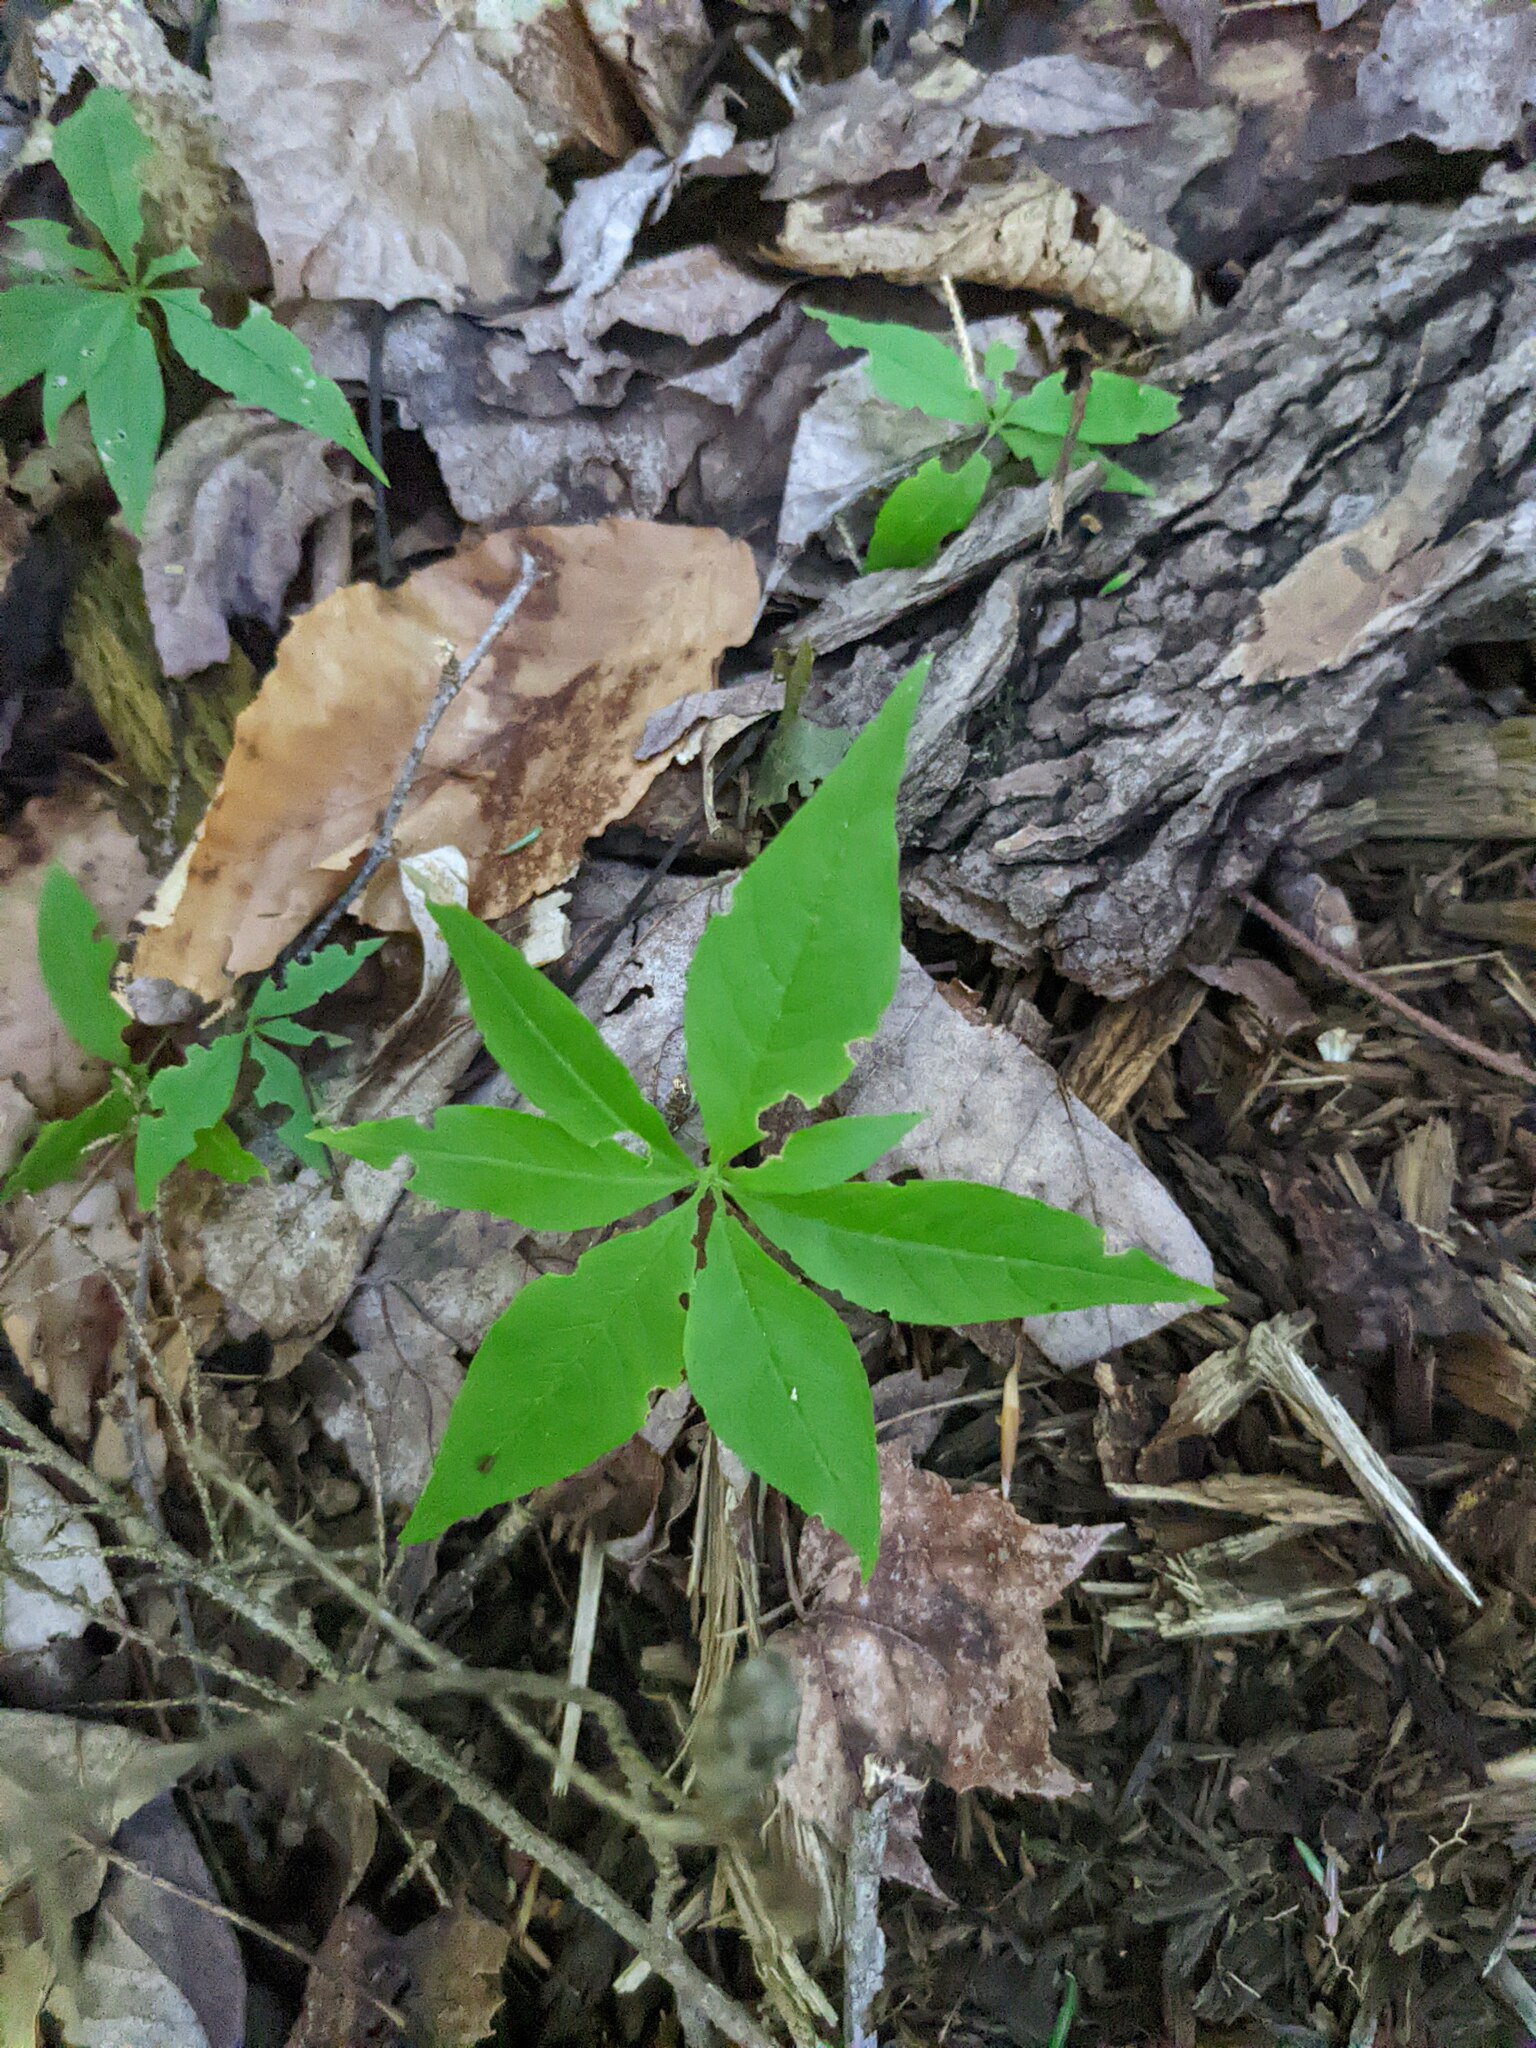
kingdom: Plantae
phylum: Tracheophyta
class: Magnoliopsida
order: Ericales
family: Primulaceae
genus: Lysimachia
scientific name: Lysimachia borealis
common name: American starflower
